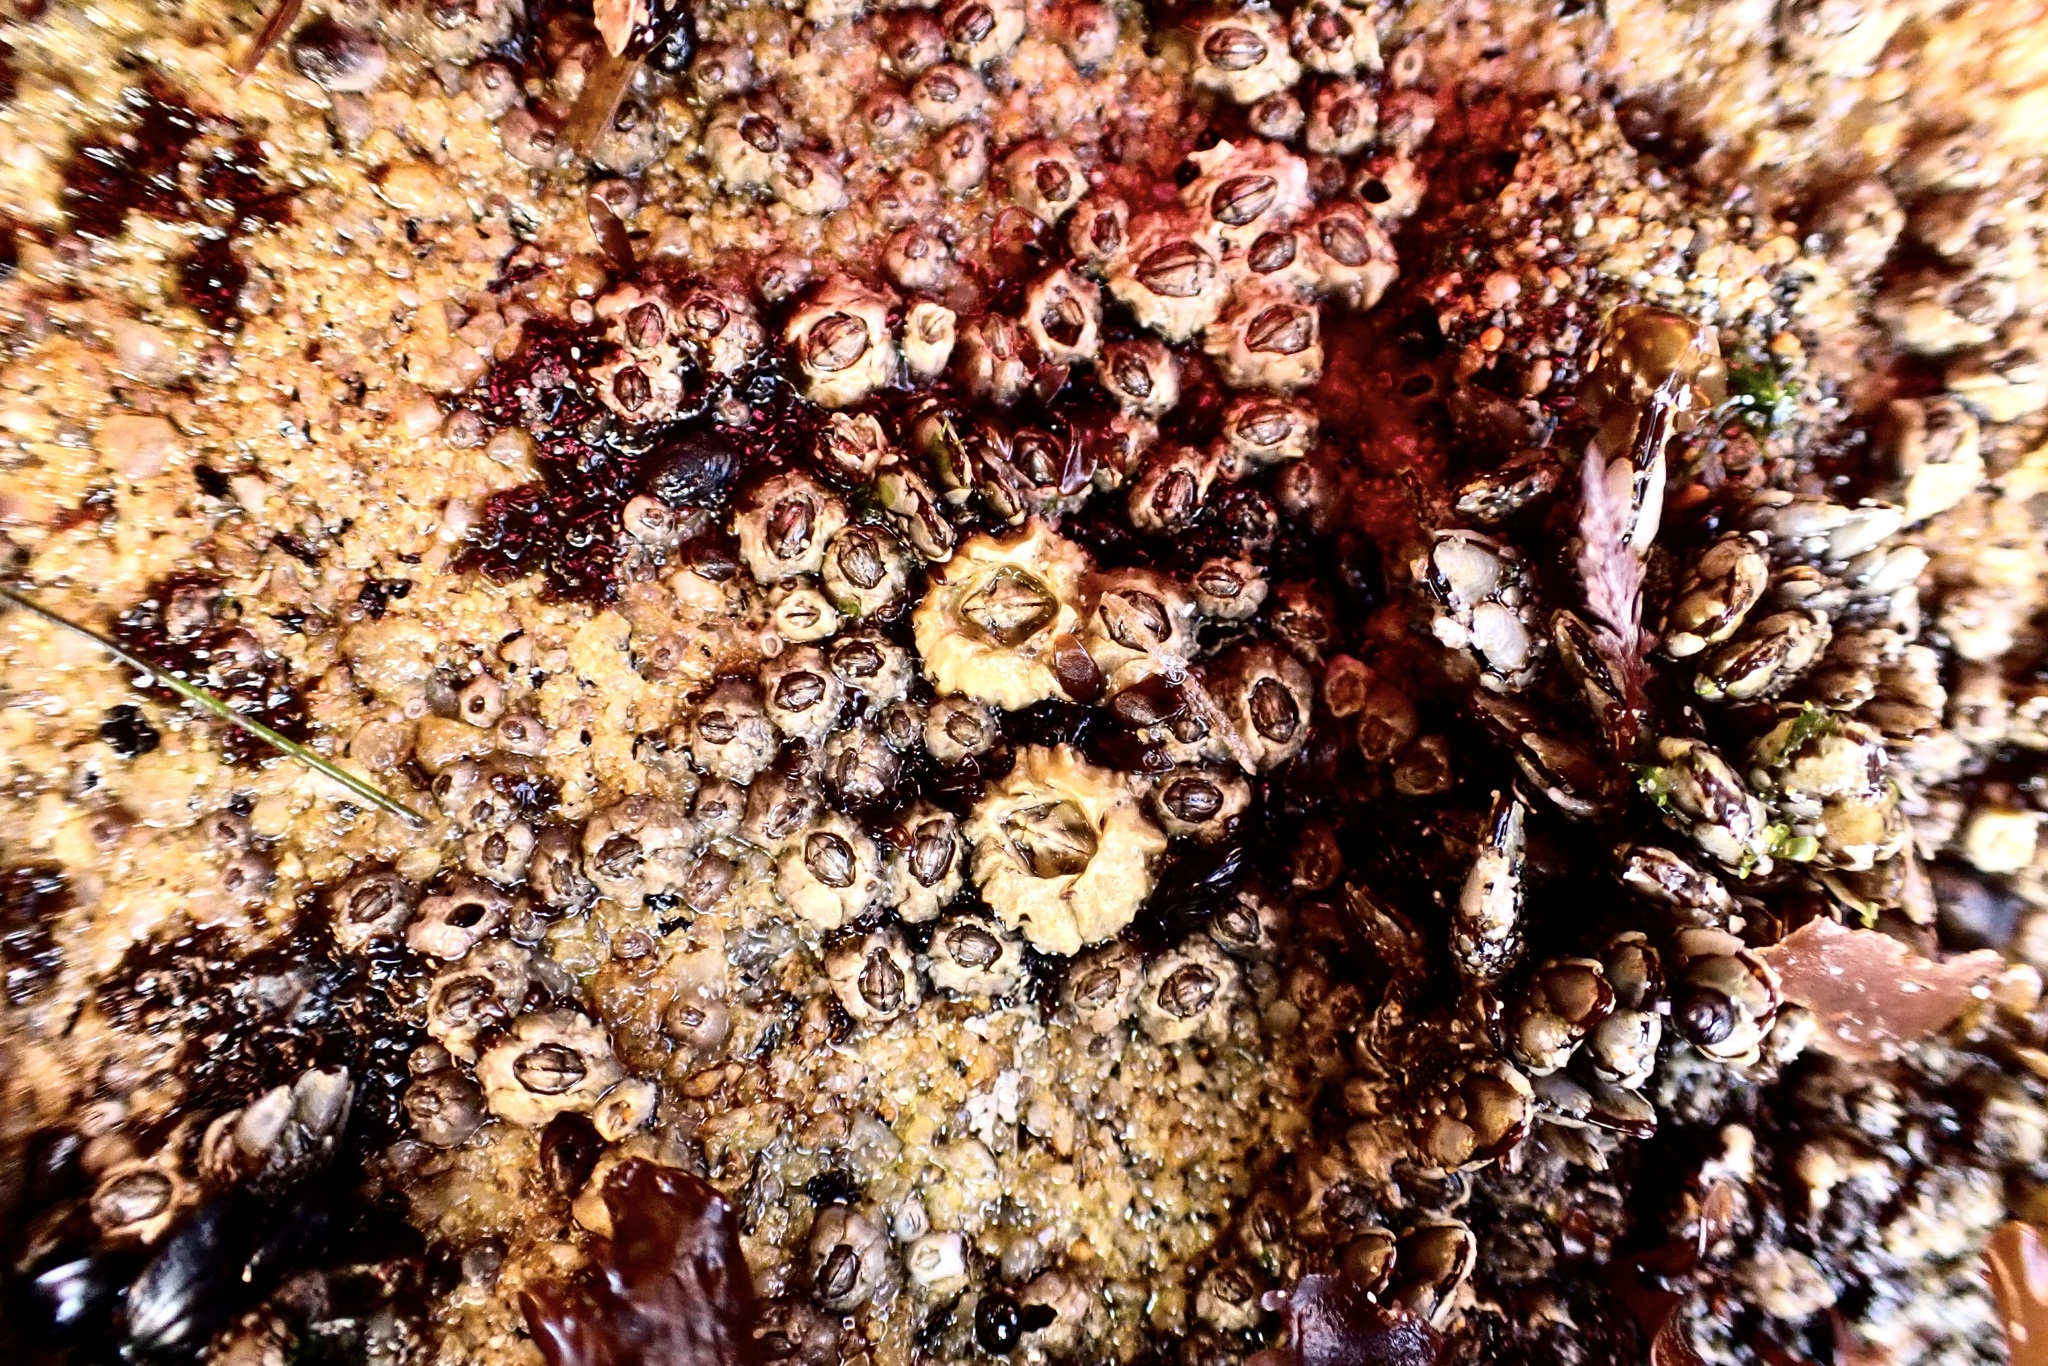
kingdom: Animalia
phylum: Arthropoda
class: Maxillopoda
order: Sessilia
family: Balanidae
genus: Balanus
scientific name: Balanus glandula
